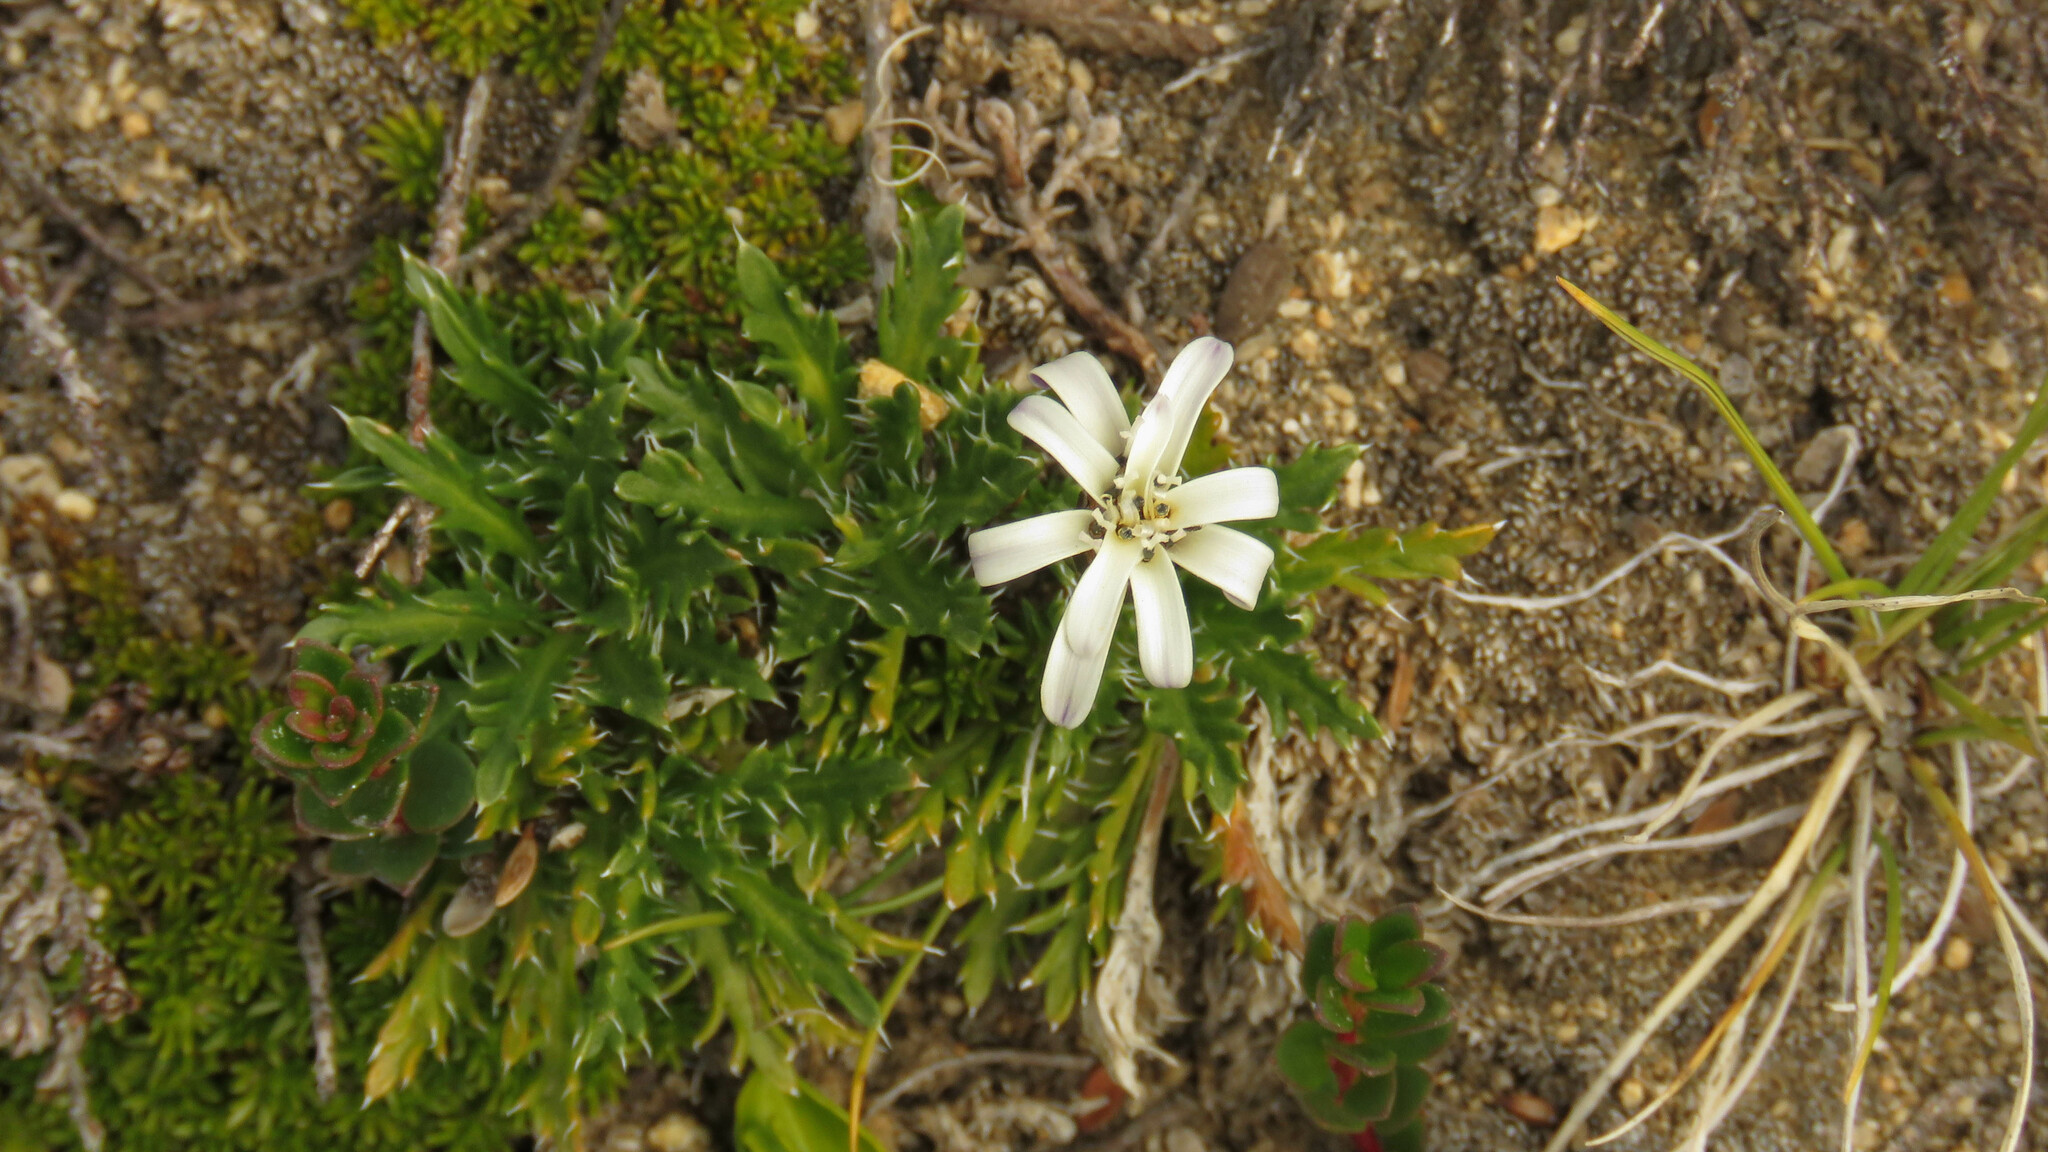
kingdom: Plantae
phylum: Tracheophyta
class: Magnoliopsida
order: Asterales
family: Asteraceae
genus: Perezia
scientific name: Perezia pilifera
